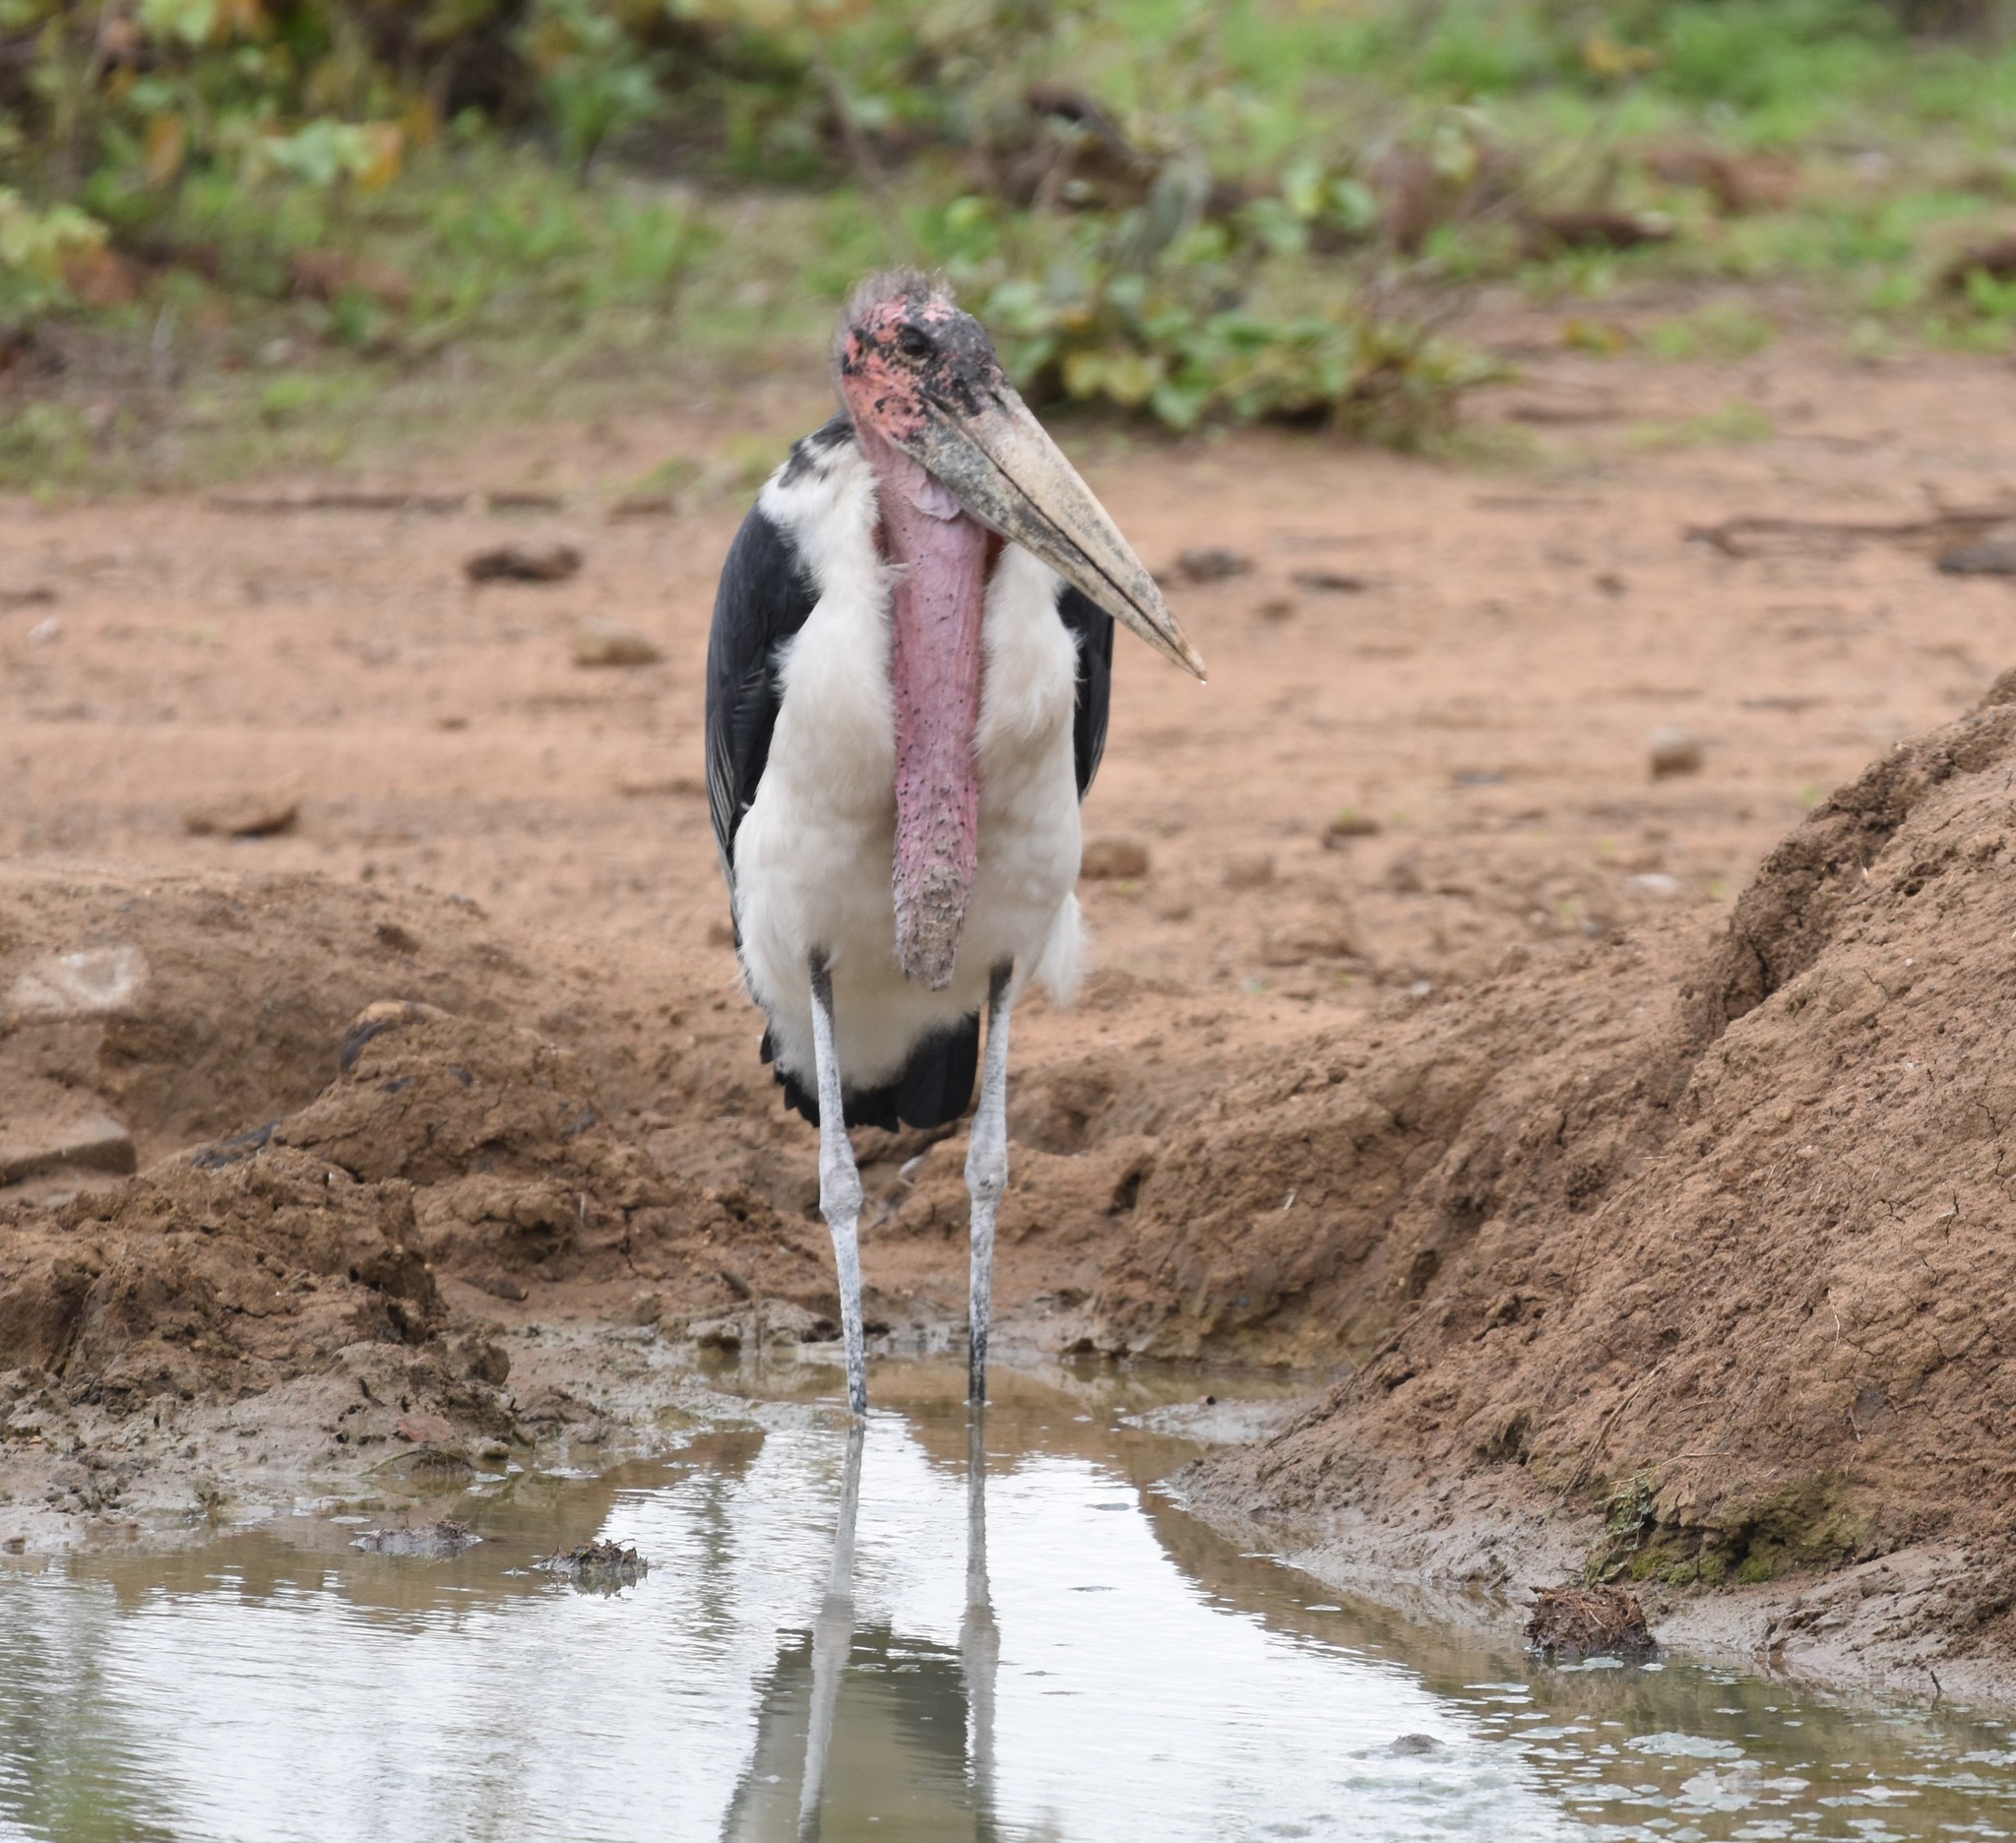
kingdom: Animalia
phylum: Chordata
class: Aves
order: Ciconiiformes
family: Ciconiidae
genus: Leptoptilos
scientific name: Leptoptilos crumenifer
